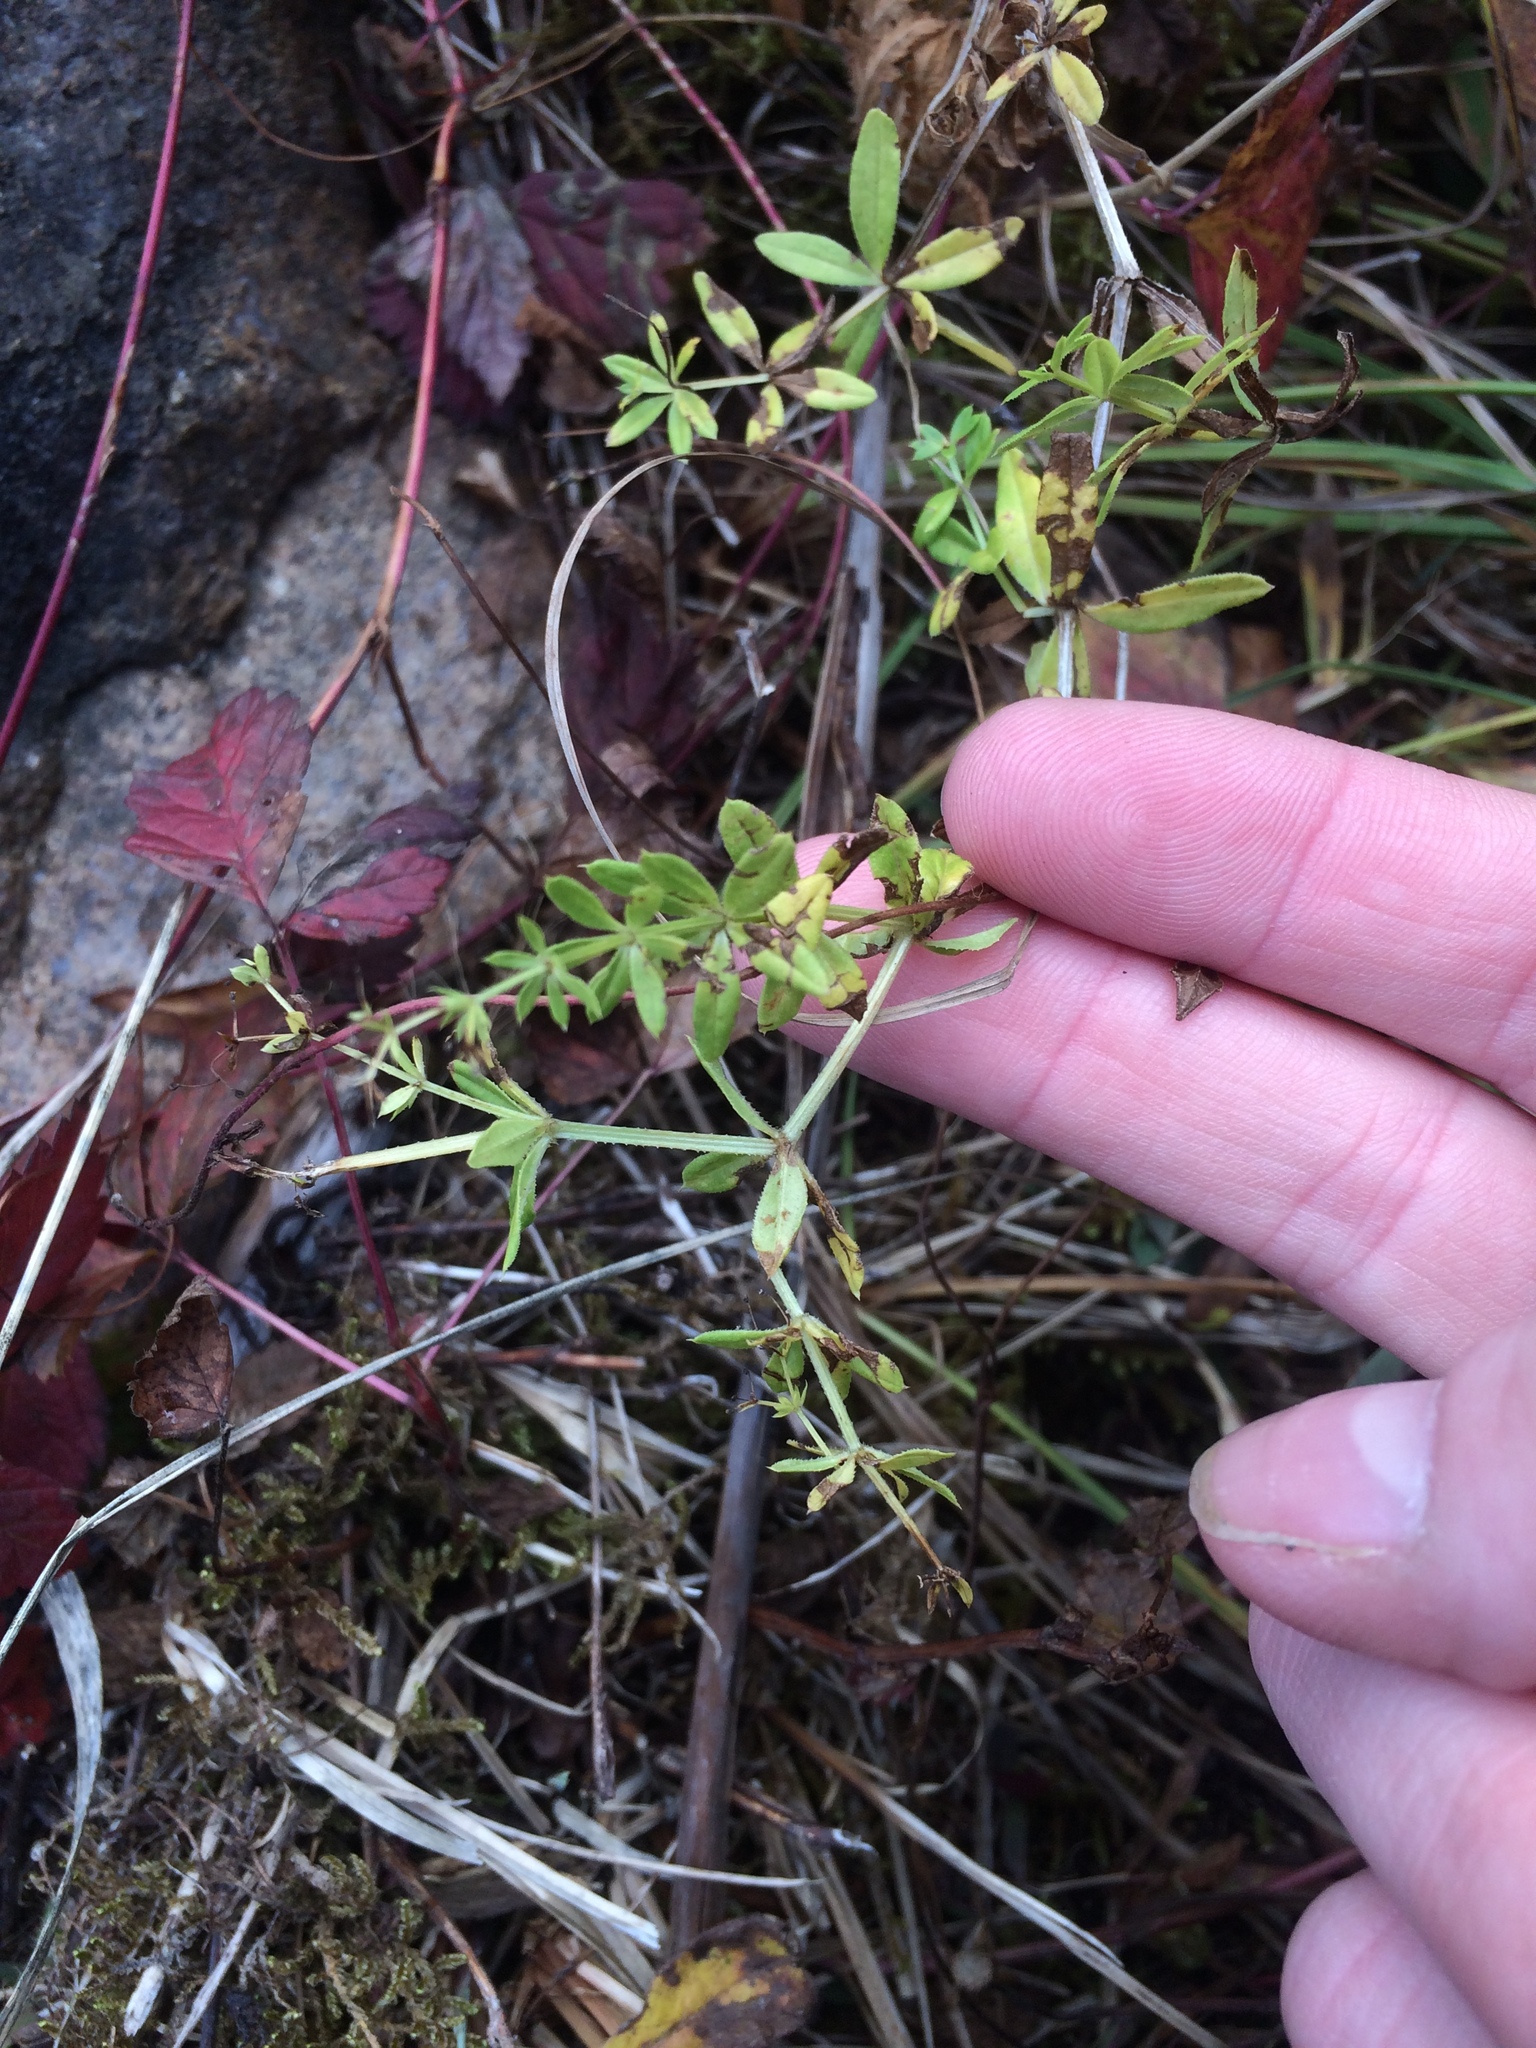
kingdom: Plantae
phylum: Tracheophyta
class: Magnoliopsida
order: Gentianales
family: Rubiaceae
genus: Galium
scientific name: Galium asprellum
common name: Rough bedstraw
